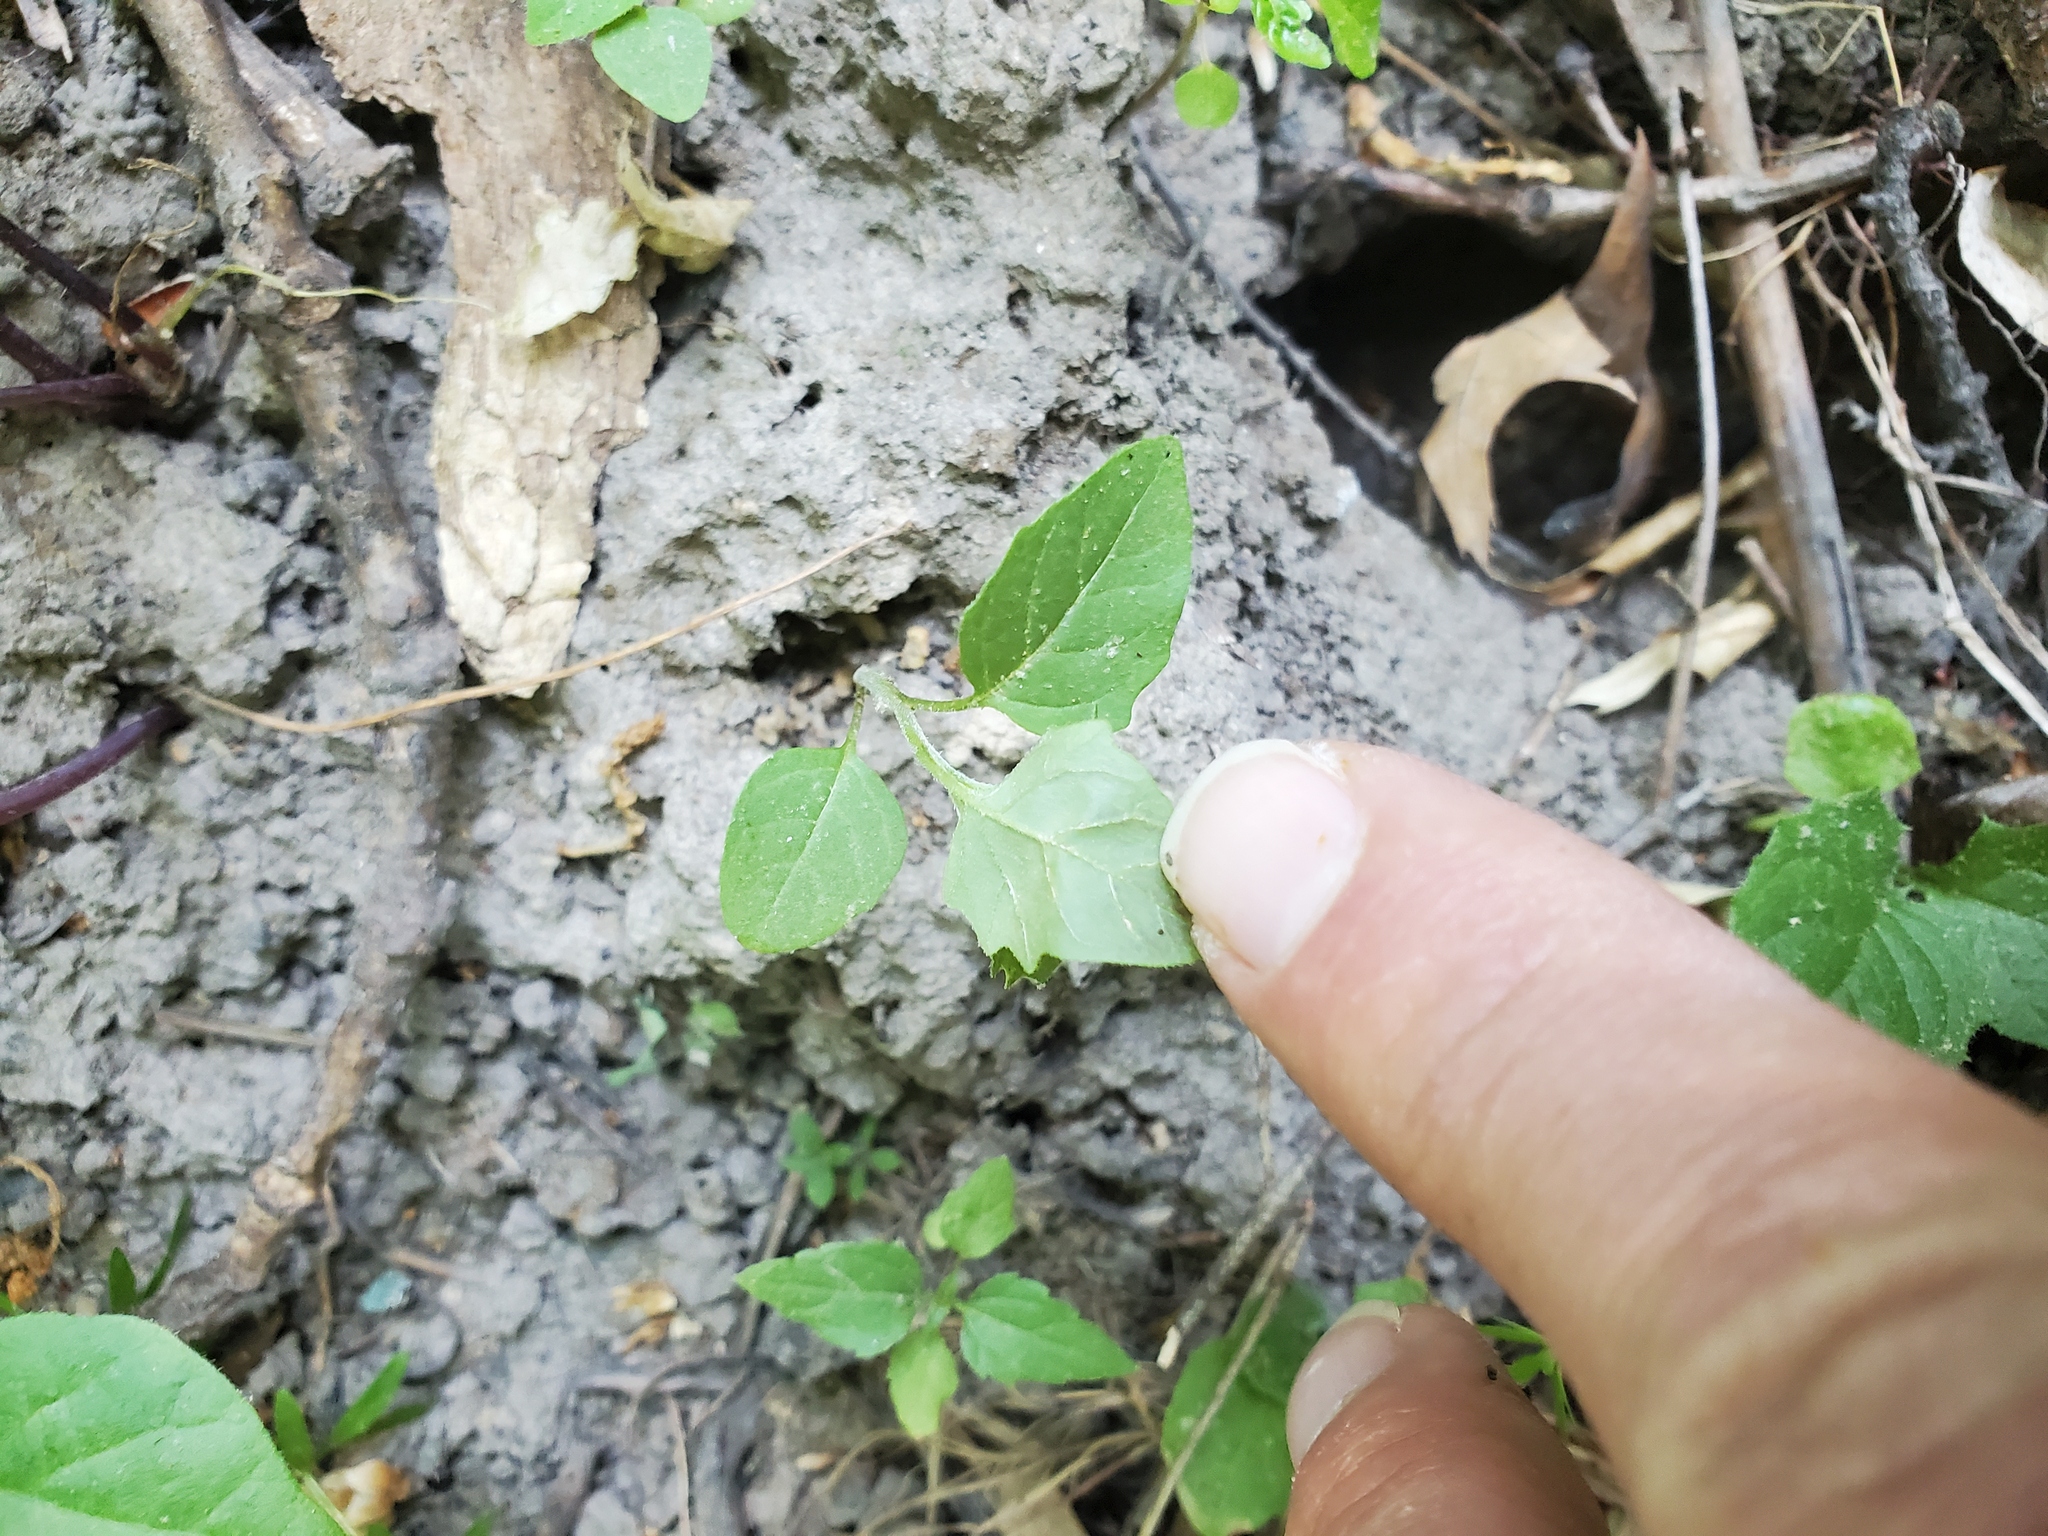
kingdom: Plantae
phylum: Tracheophyta
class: Magnoliopsida
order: Solanales
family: Solanaceae
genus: Solanum
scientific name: Solanum emulans
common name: Eastern black nightshade
